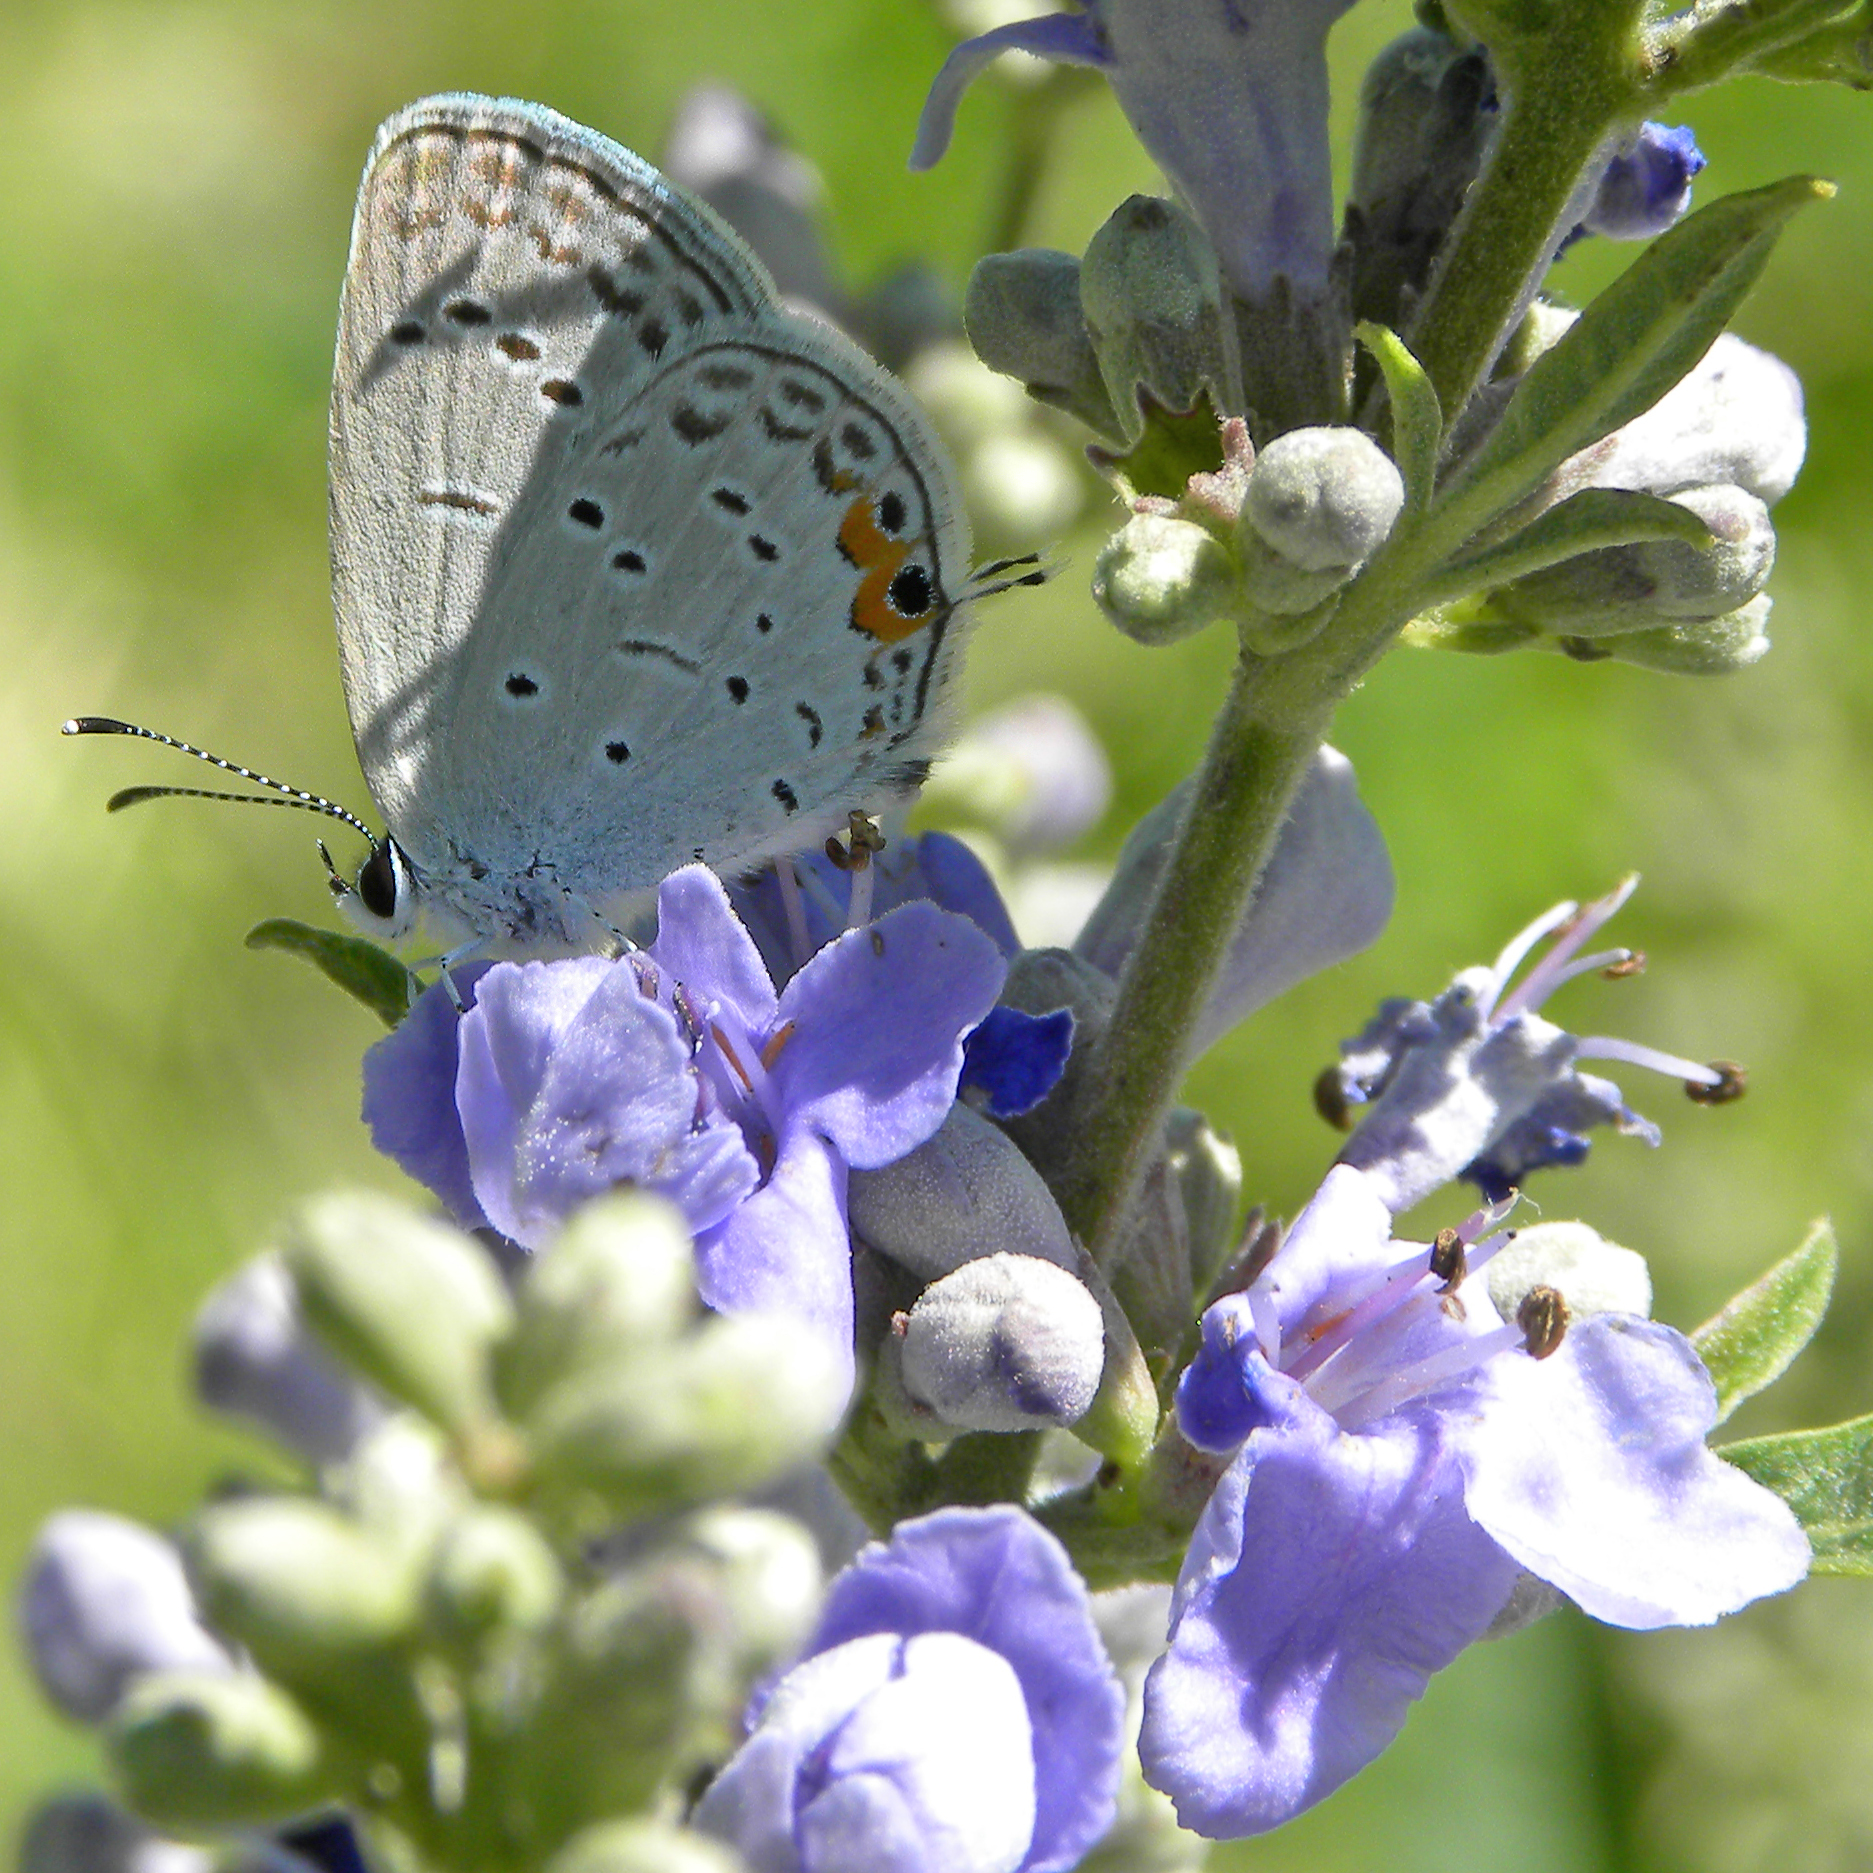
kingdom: Animalia
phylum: Arthropoda
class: Insecta
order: Lepidoptera
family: Lycaenidae
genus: Elkalyce
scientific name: Elkalyce comyntas
